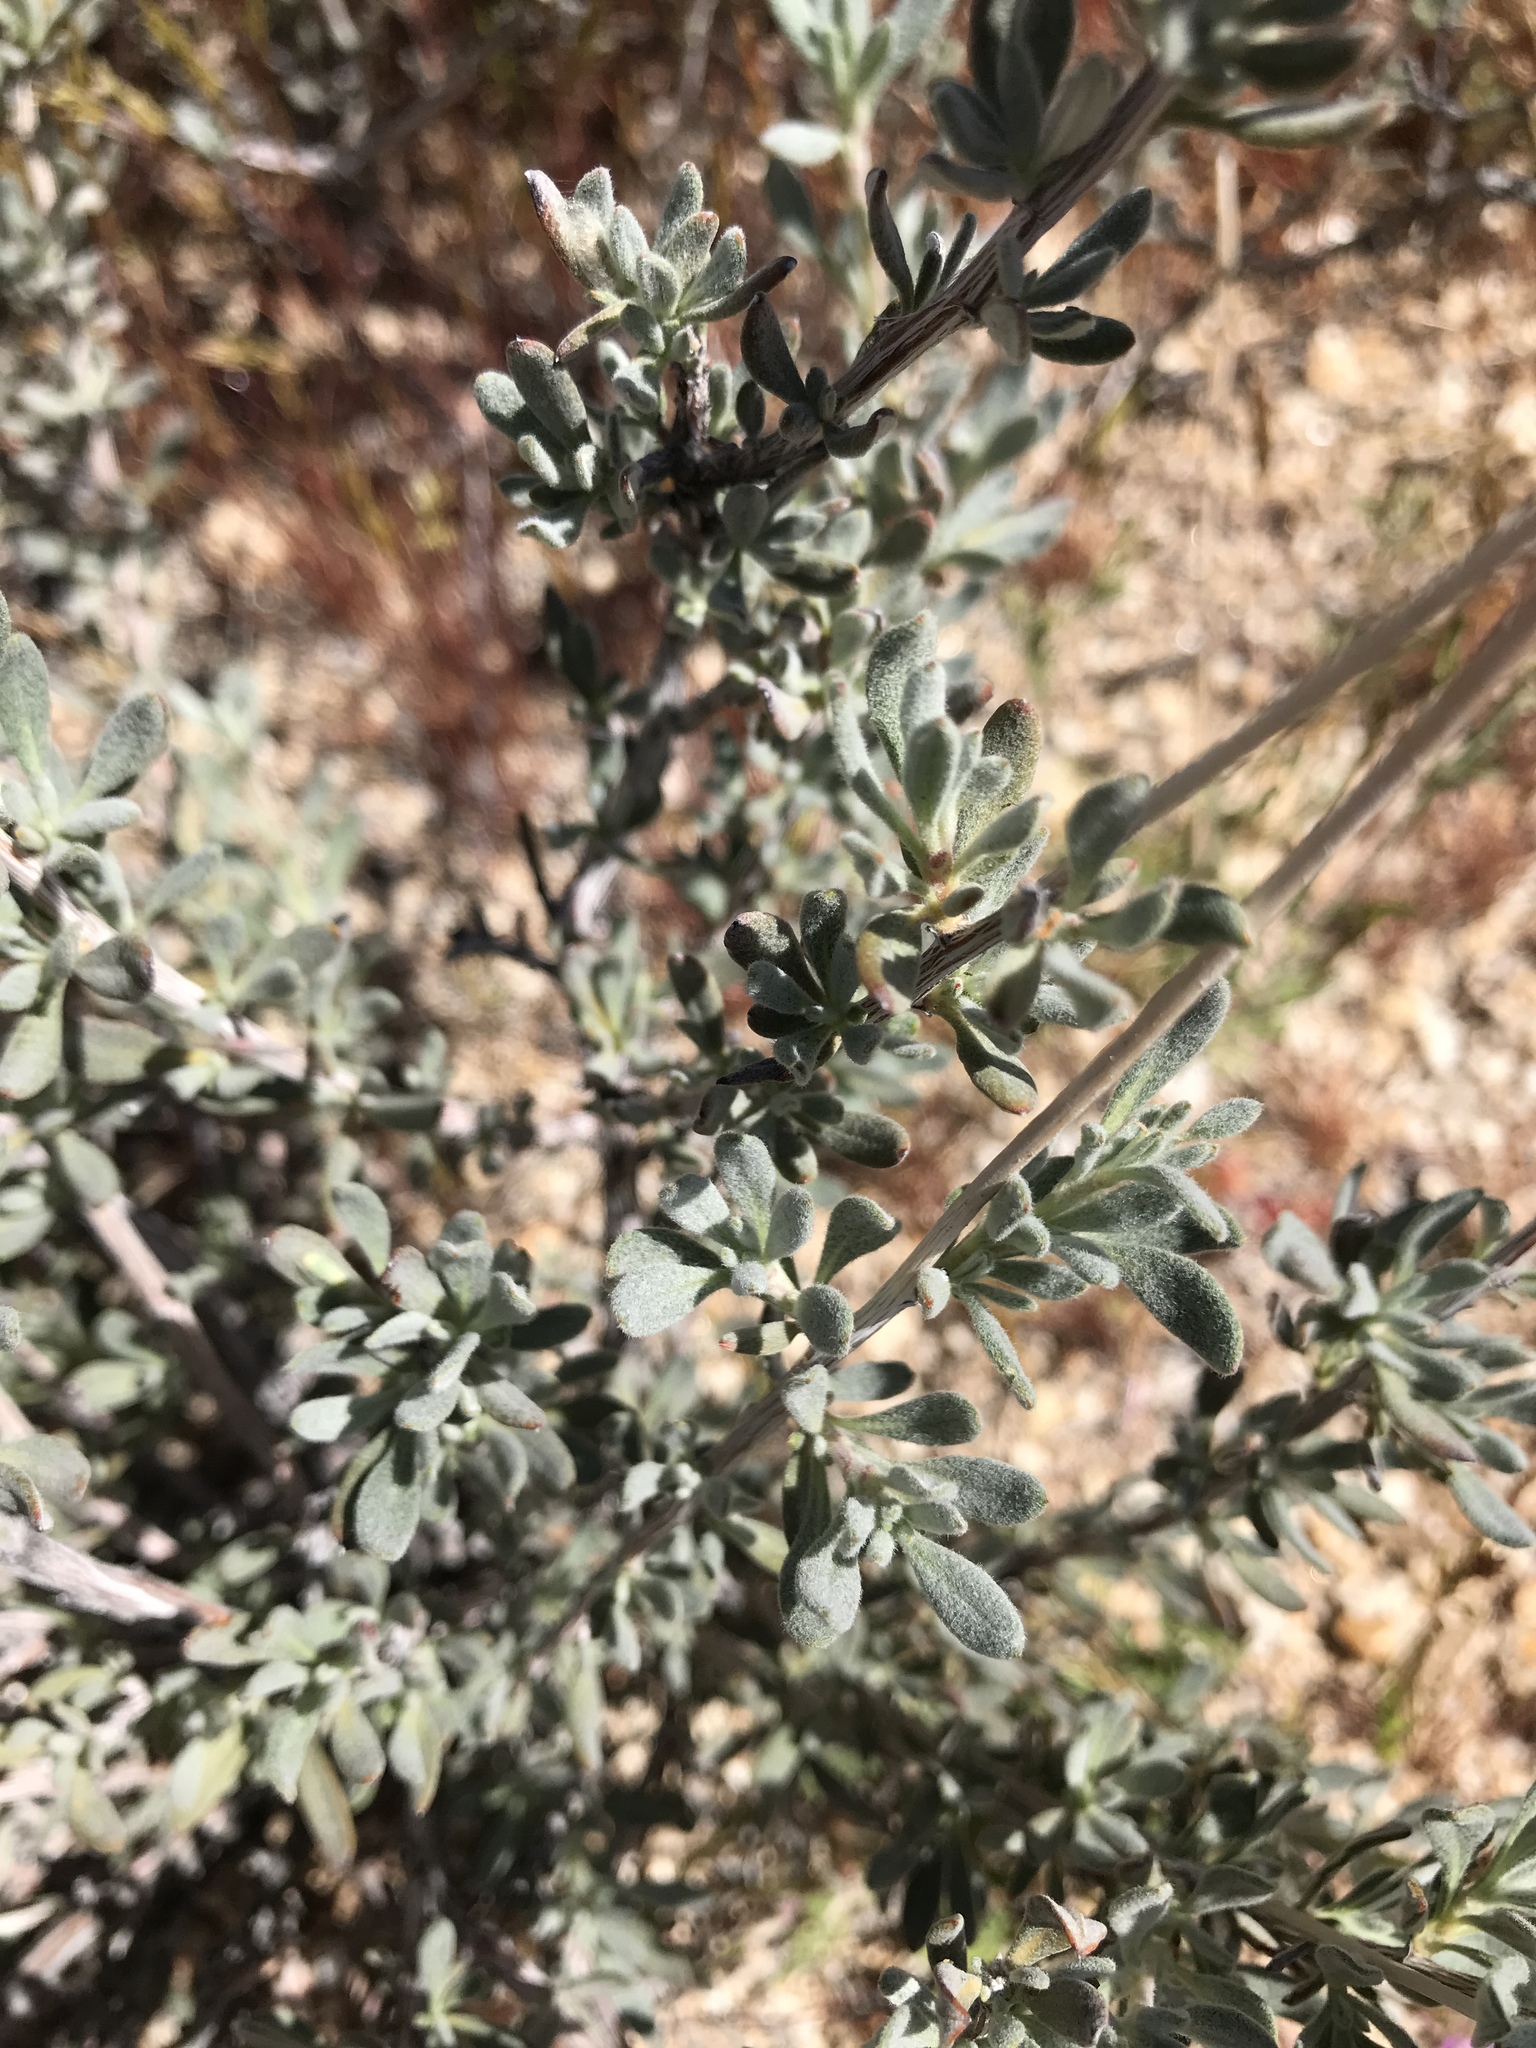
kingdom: Plantae
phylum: Tracheophyta
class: Magnoliopsida
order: Caryophyllales
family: Polygonaceae
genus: Eriogonum
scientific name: Eriogonum fasciculatum
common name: California wild buckwheat
